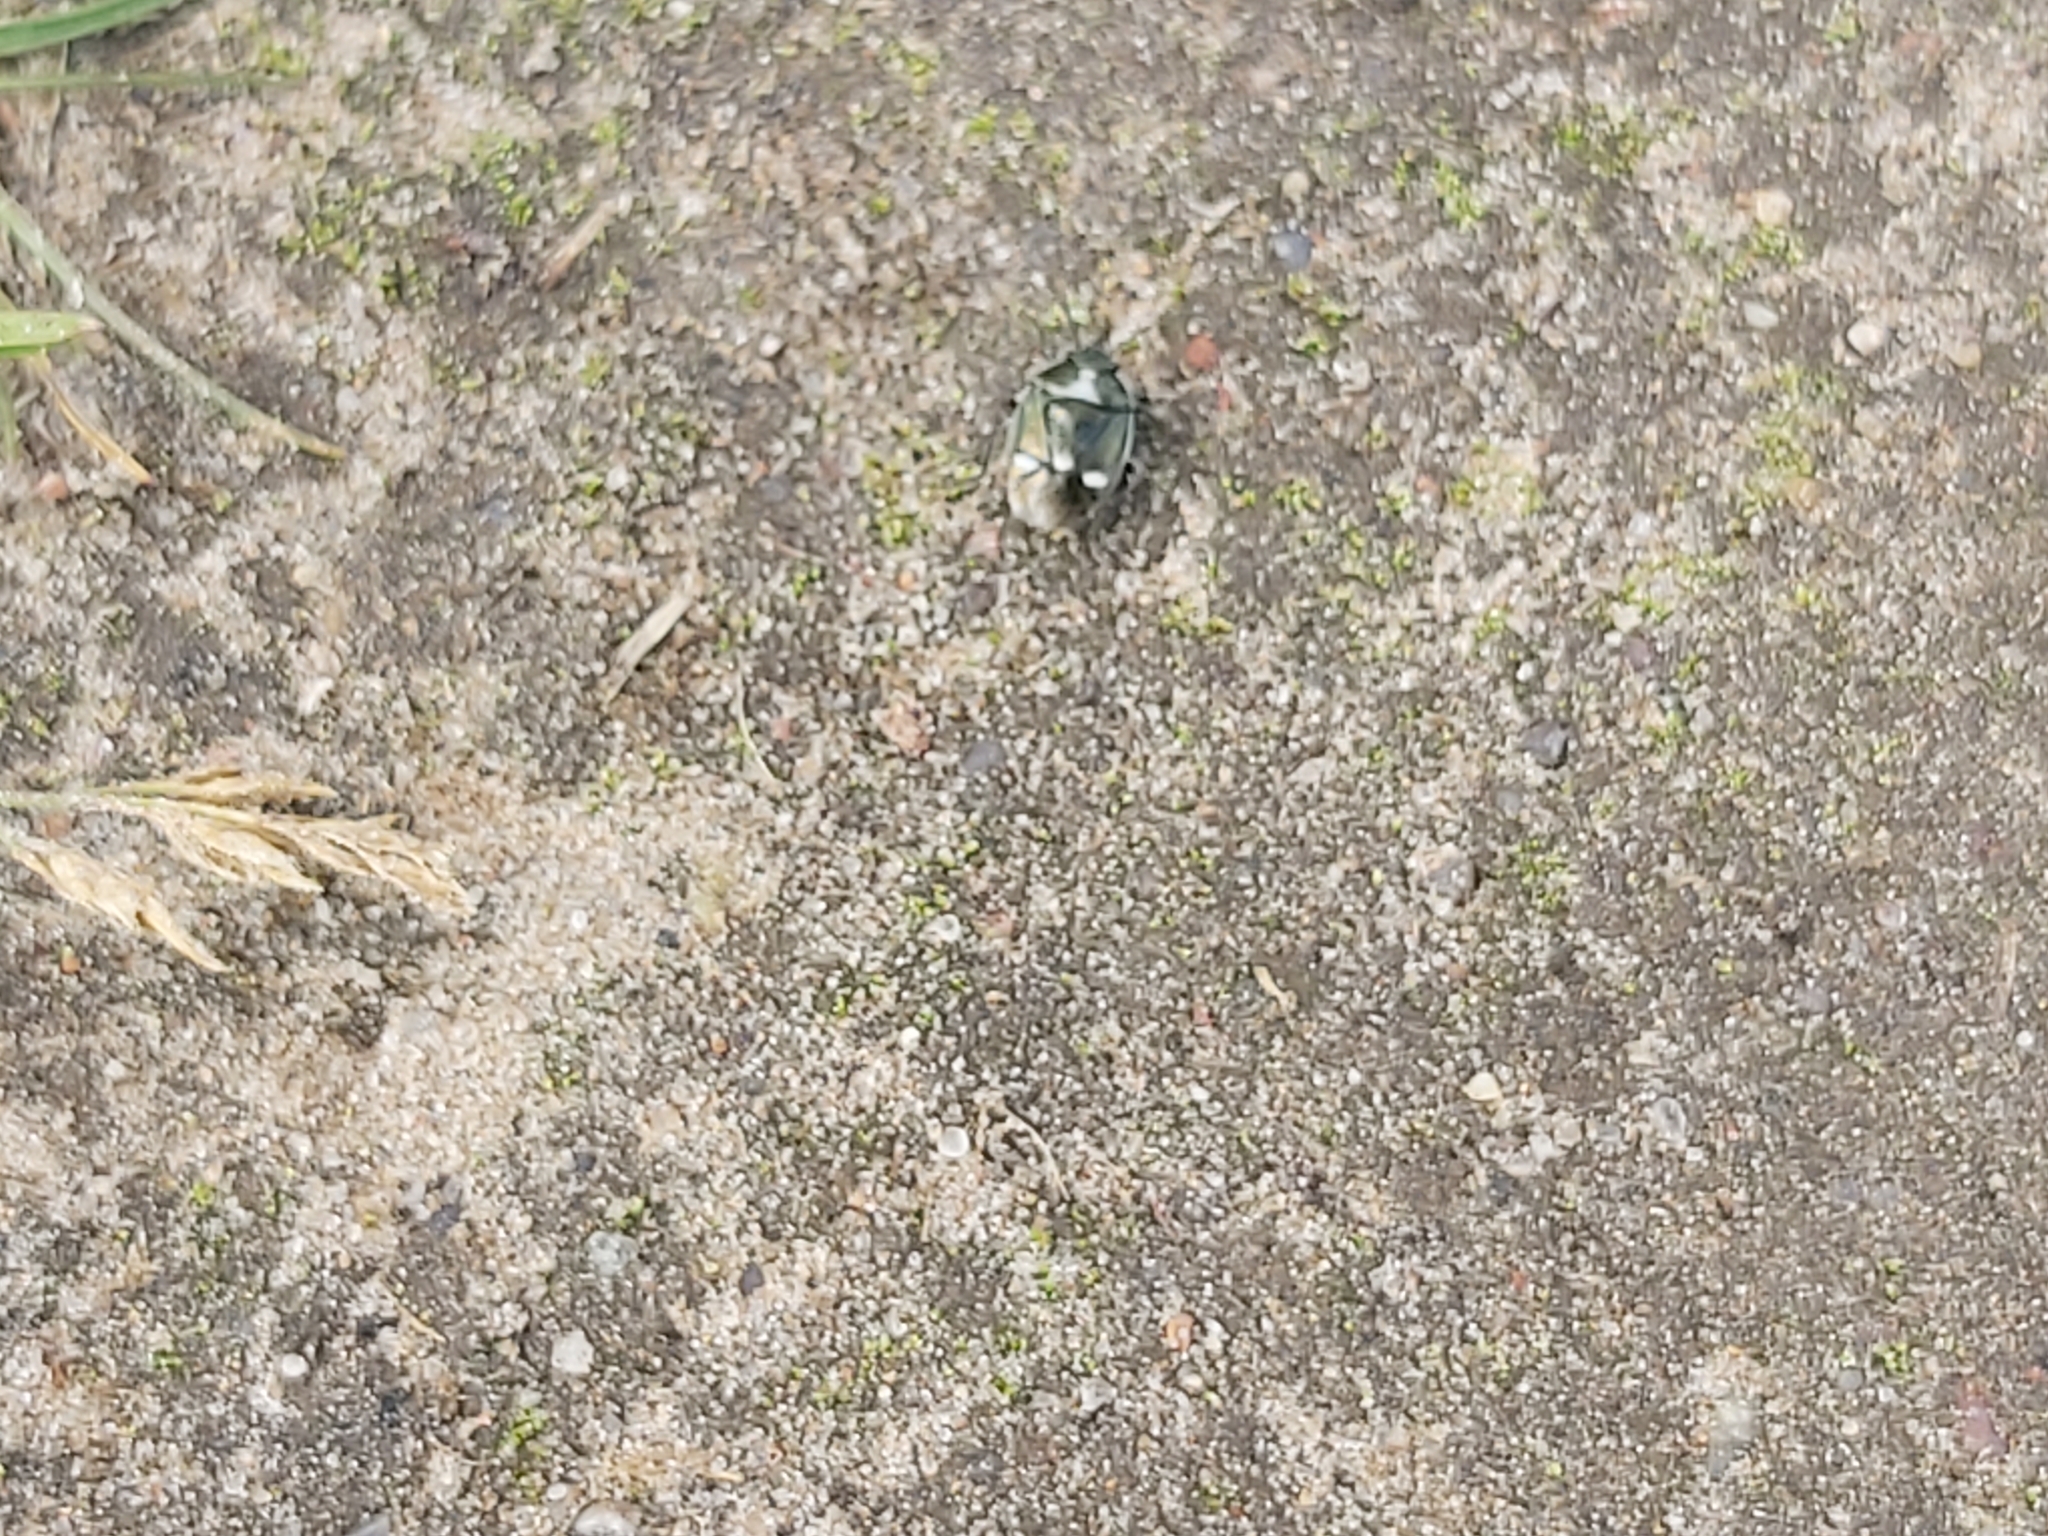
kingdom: Animalia
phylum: Arthropoda
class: Insecta
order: Hemiptera
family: Pentatomidae
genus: Eurydema
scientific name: Eurydema oleracea
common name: Cabbage bug
